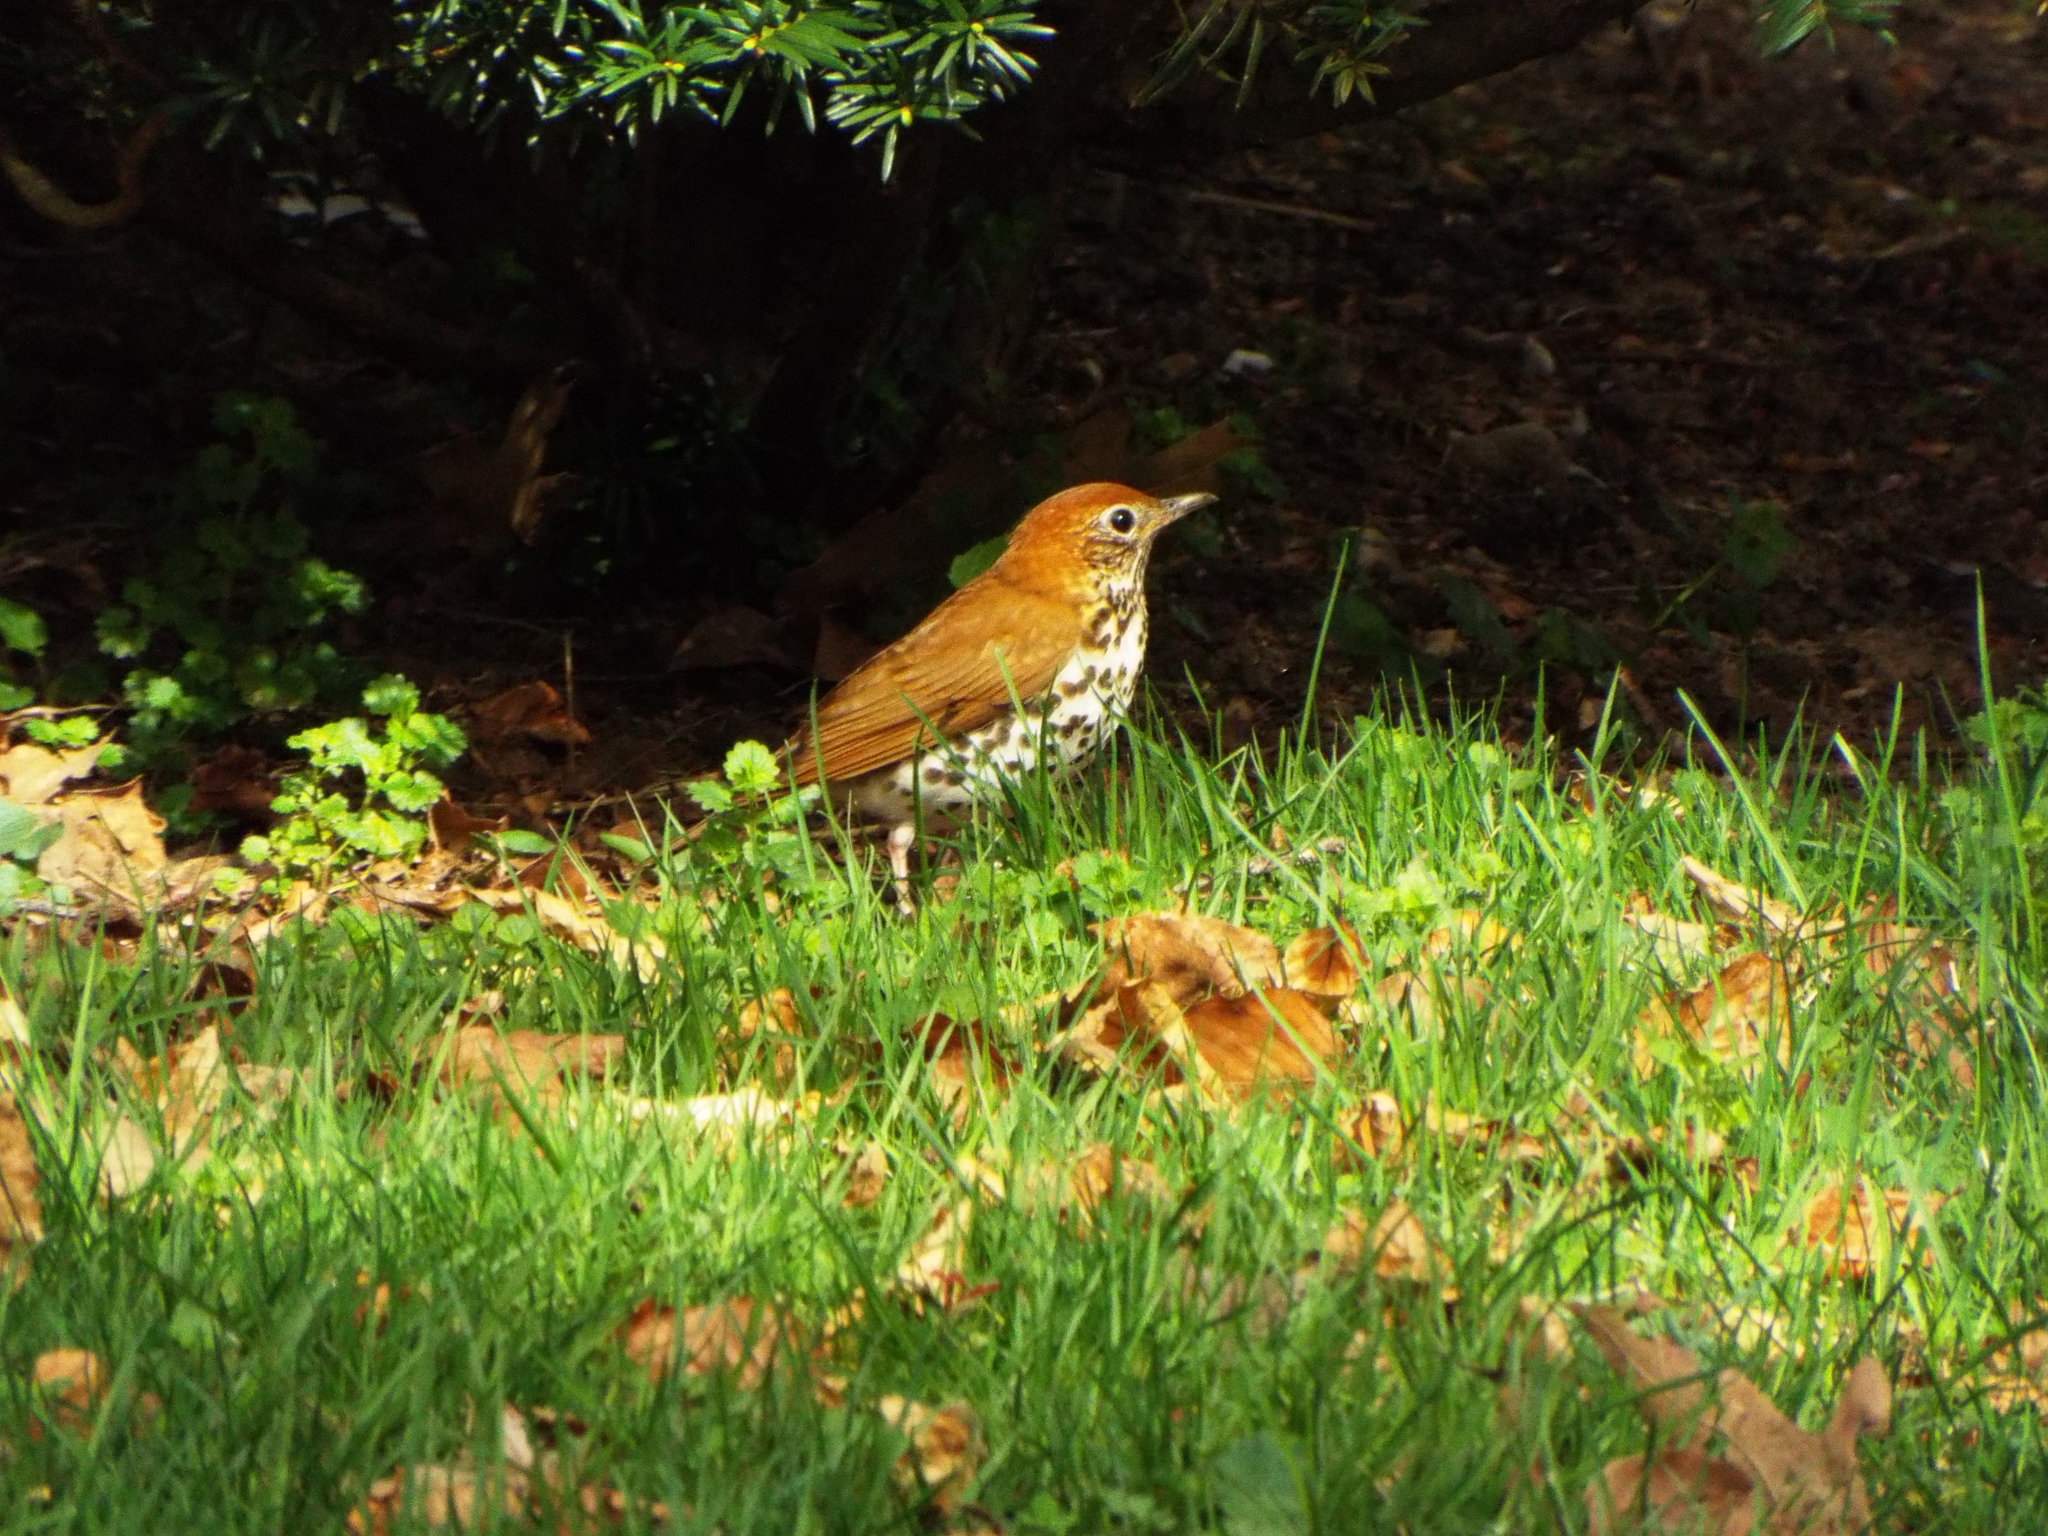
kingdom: Animalia
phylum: Chordata
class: Aves
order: Passeriformes
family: Turdidae
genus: Hylocichla
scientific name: Hylocichla mustelina
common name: Wood thrush
